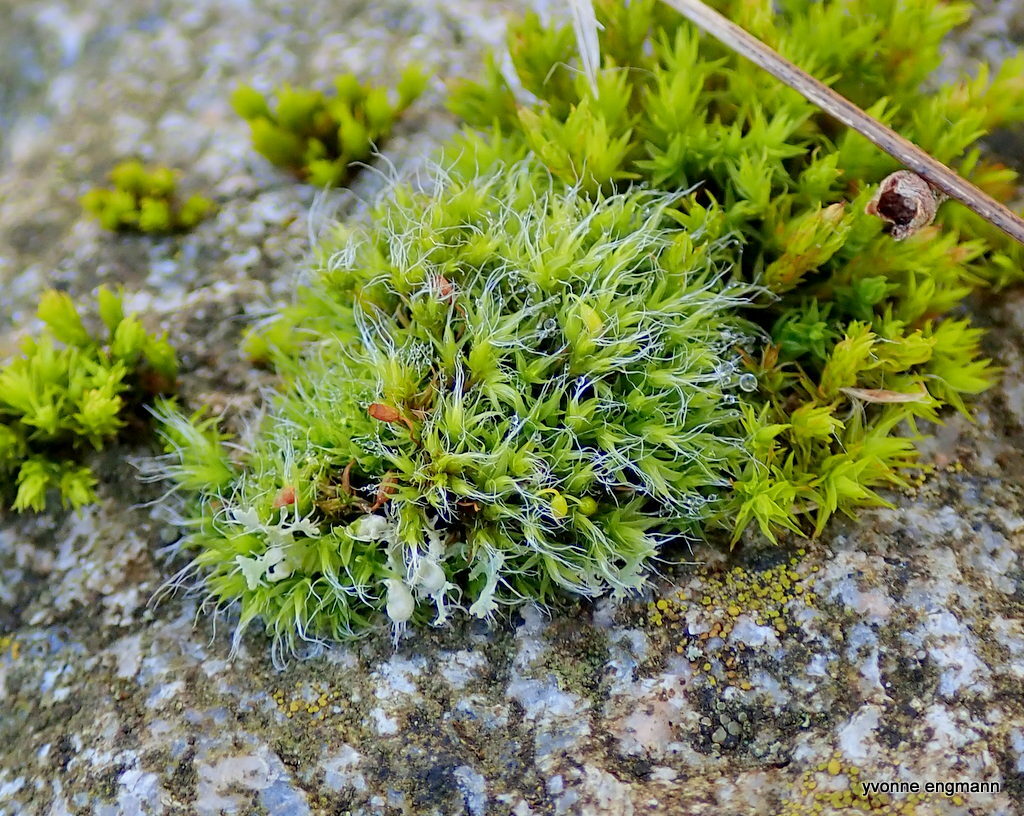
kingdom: Plantae
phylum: Bryophyta
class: Bryopsida
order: Grimmiales
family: Grimmiaceae
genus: Grimmia
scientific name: Grimmia pulvinata
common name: Grey-cushioned grimmia
